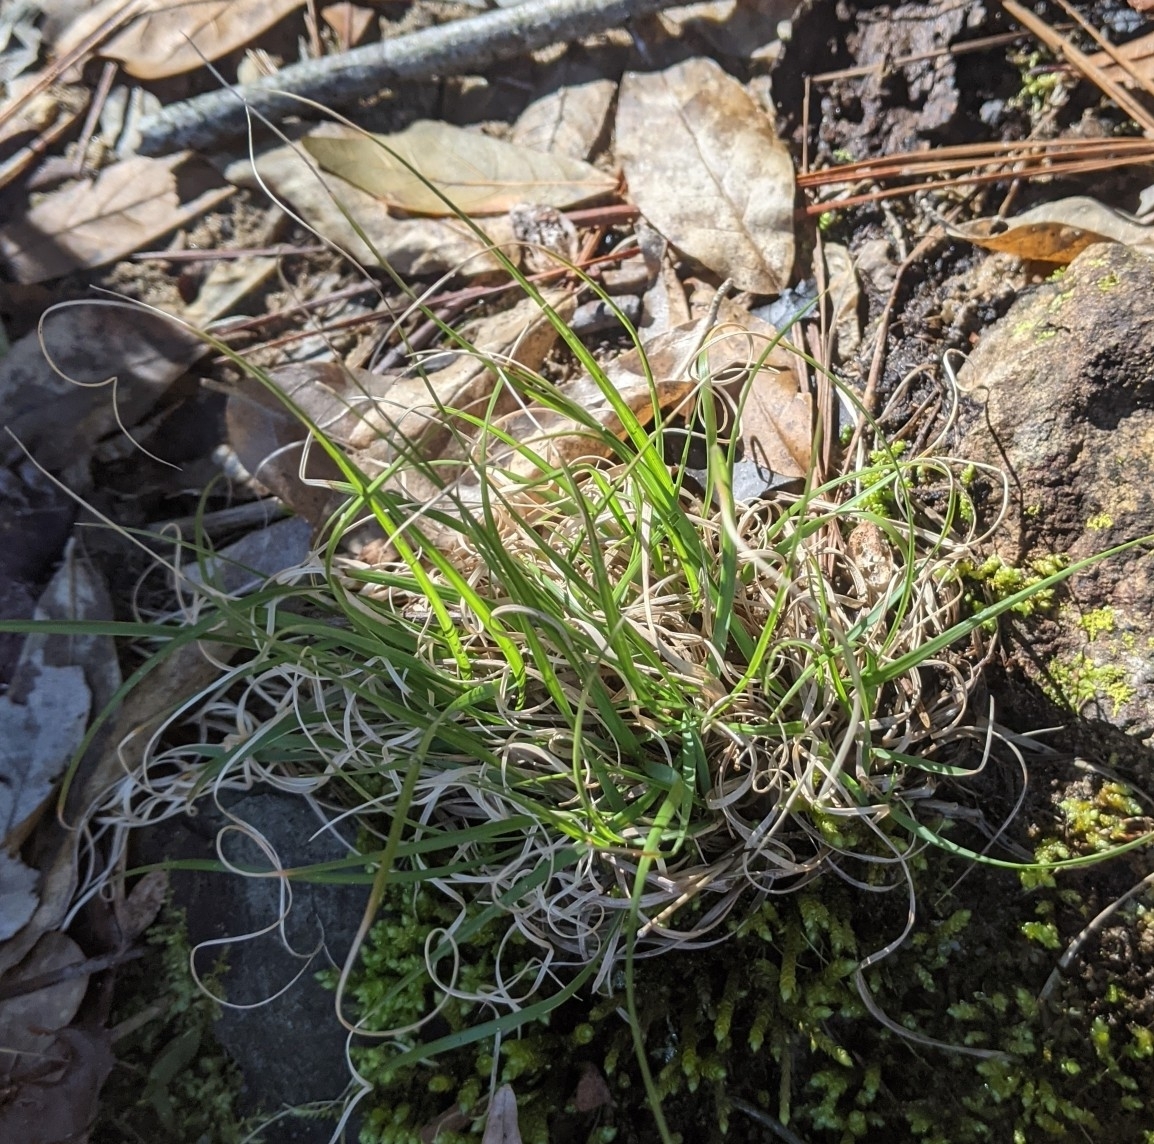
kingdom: Plantae
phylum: Tracheophyta
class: Liliopsida
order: Poales
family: Poaceae
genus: Danthonia
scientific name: Danthonia spicata
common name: Common wild oatgrass
